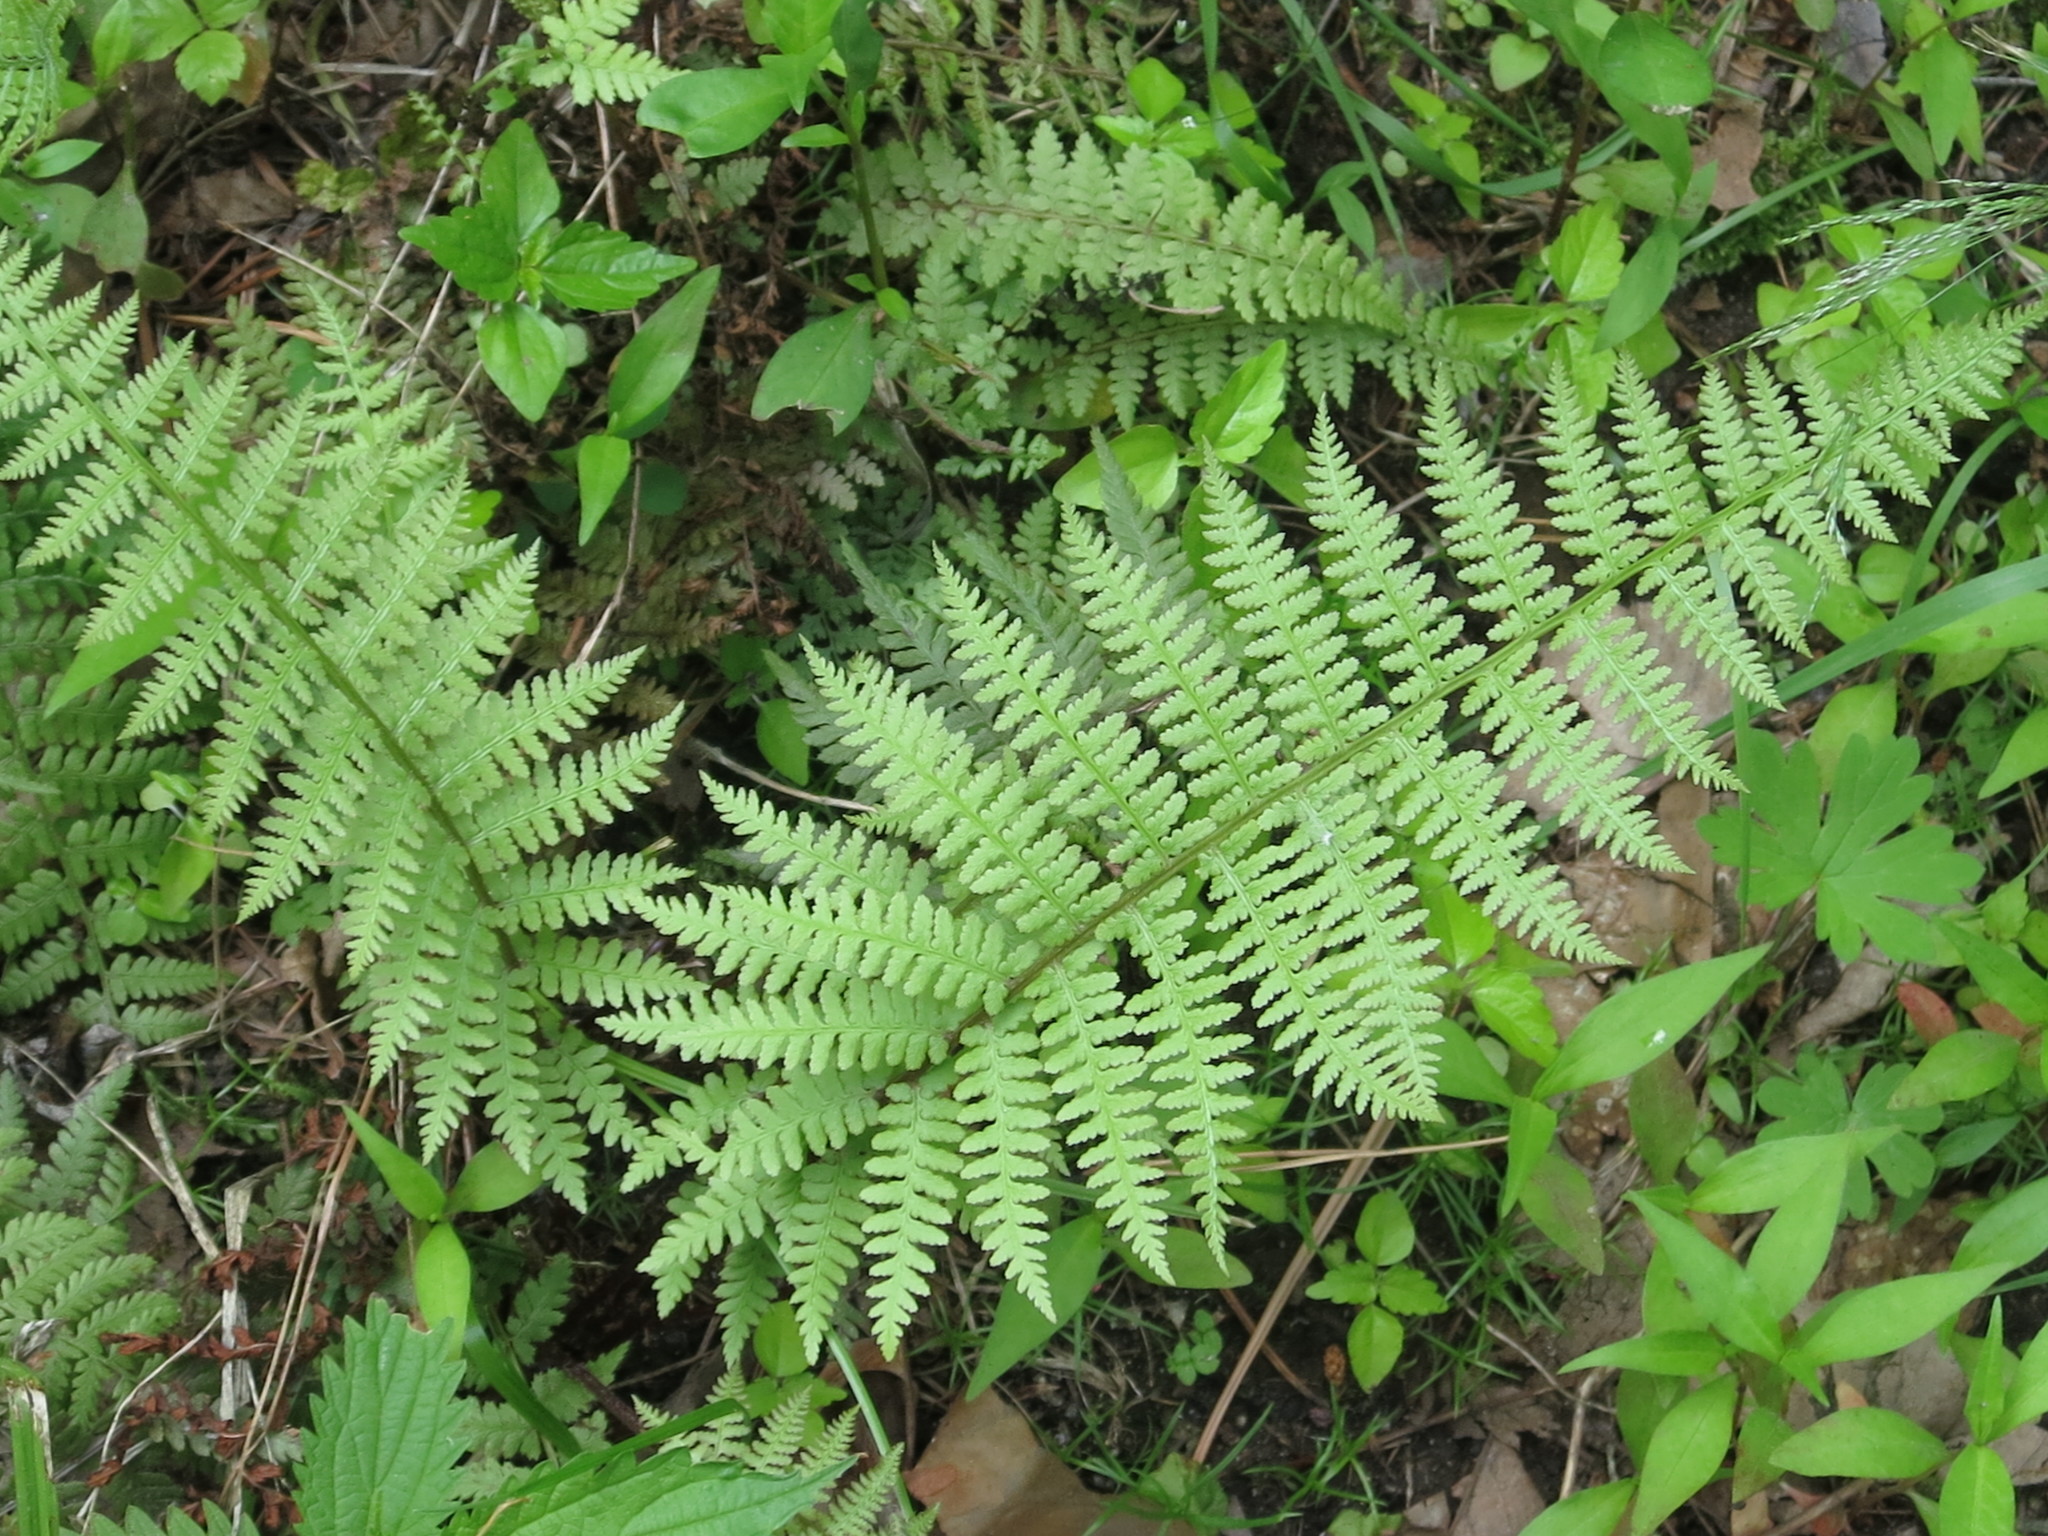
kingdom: Plantae
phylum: Tracheophyta
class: Polypodiopsida
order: Polypodiales
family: Athyriaceae
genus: Athyrium
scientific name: Athyrium filix-femina
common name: Lady fern
